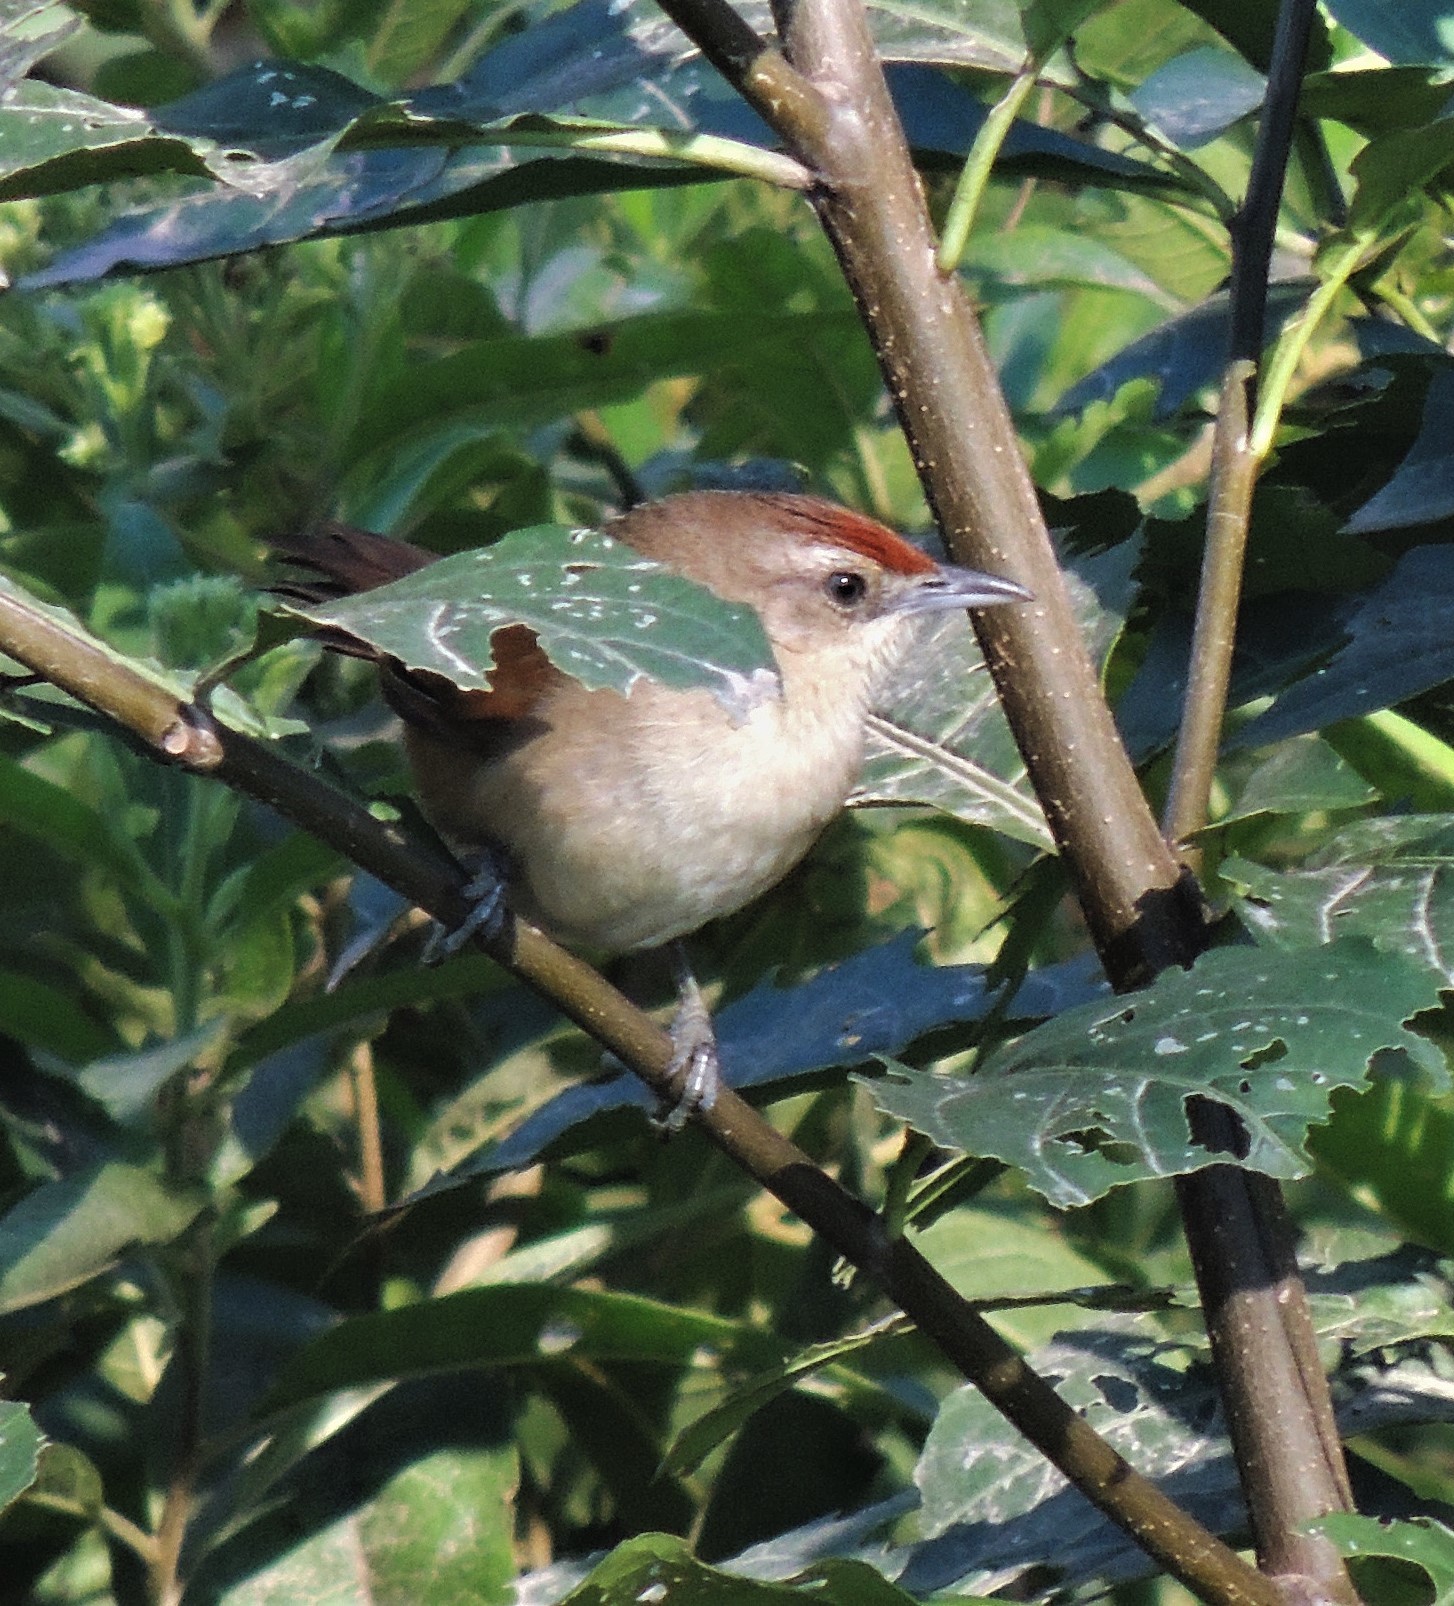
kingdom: Animalia
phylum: Chordata
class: Aves
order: Passeriformes
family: Furnariidae
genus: Phacellodomus
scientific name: Phacellodomus rufifrons
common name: Rufous-fronted thornbird
